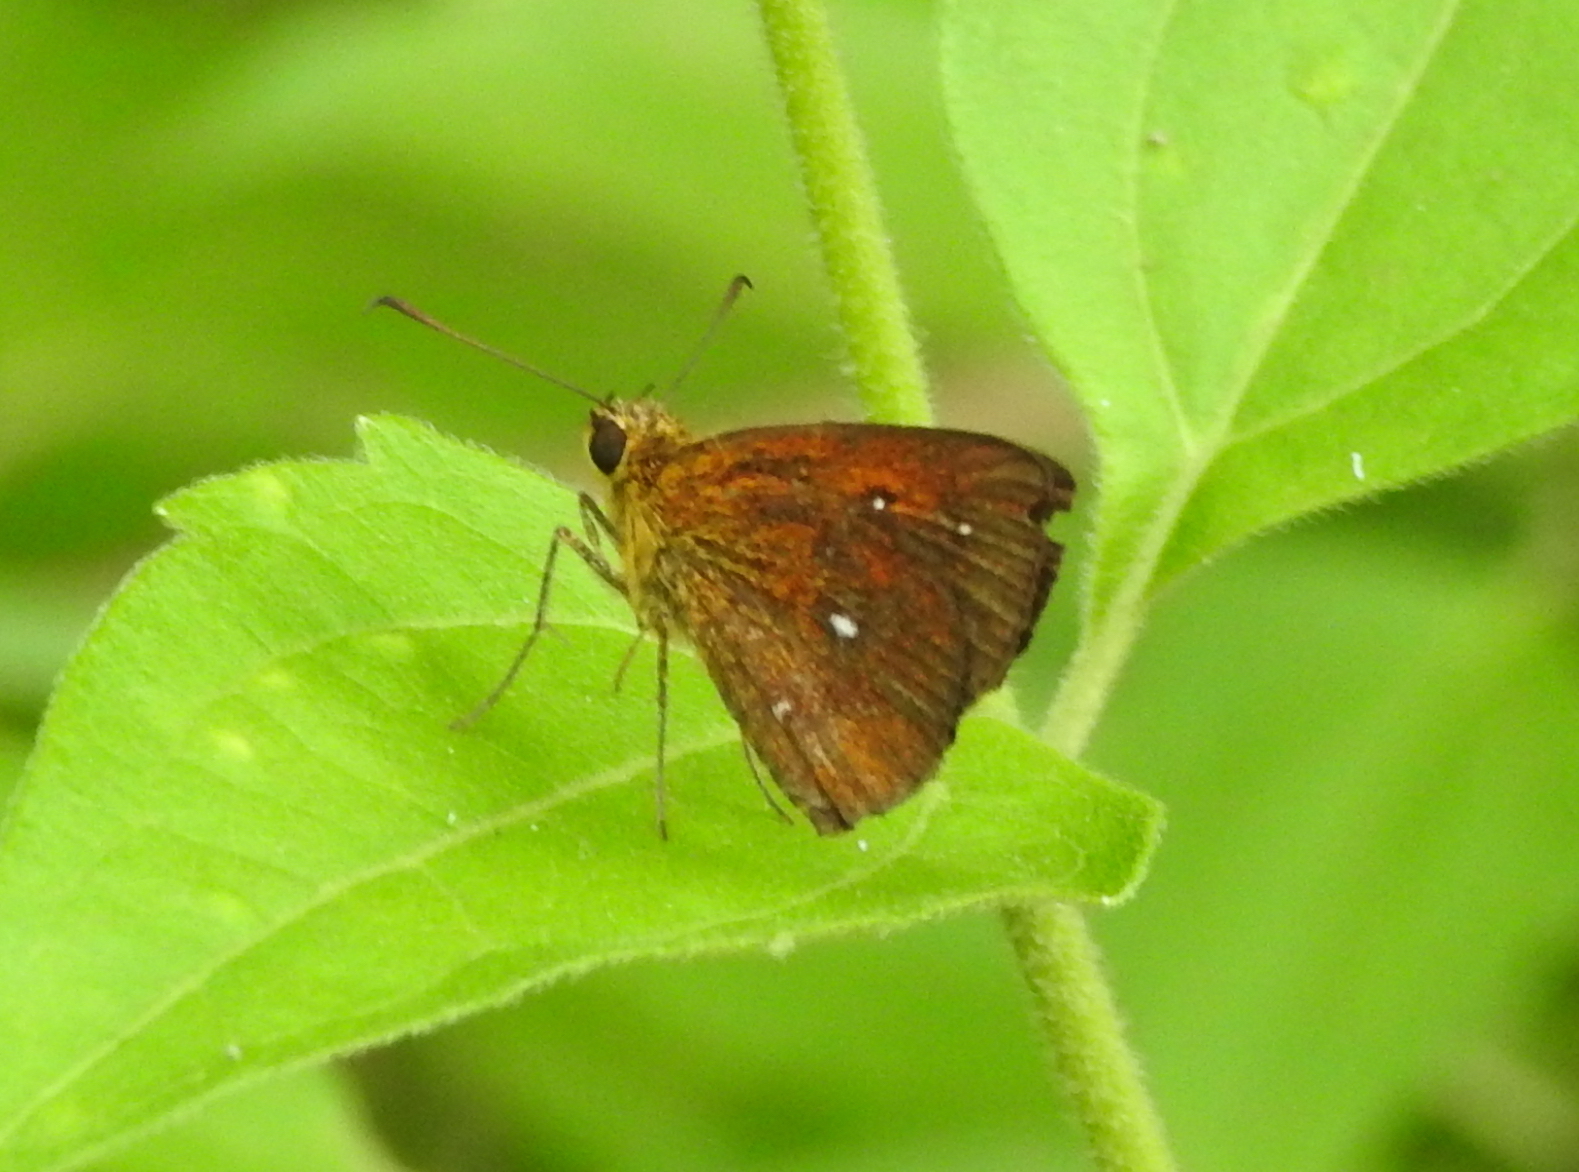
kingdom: Animalia
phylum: Arthropoda
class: Insecta
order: Lepidoptera
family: Hesperiidae
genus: Iambrix
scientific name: Iambrix salsala
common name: Chestnut bob
